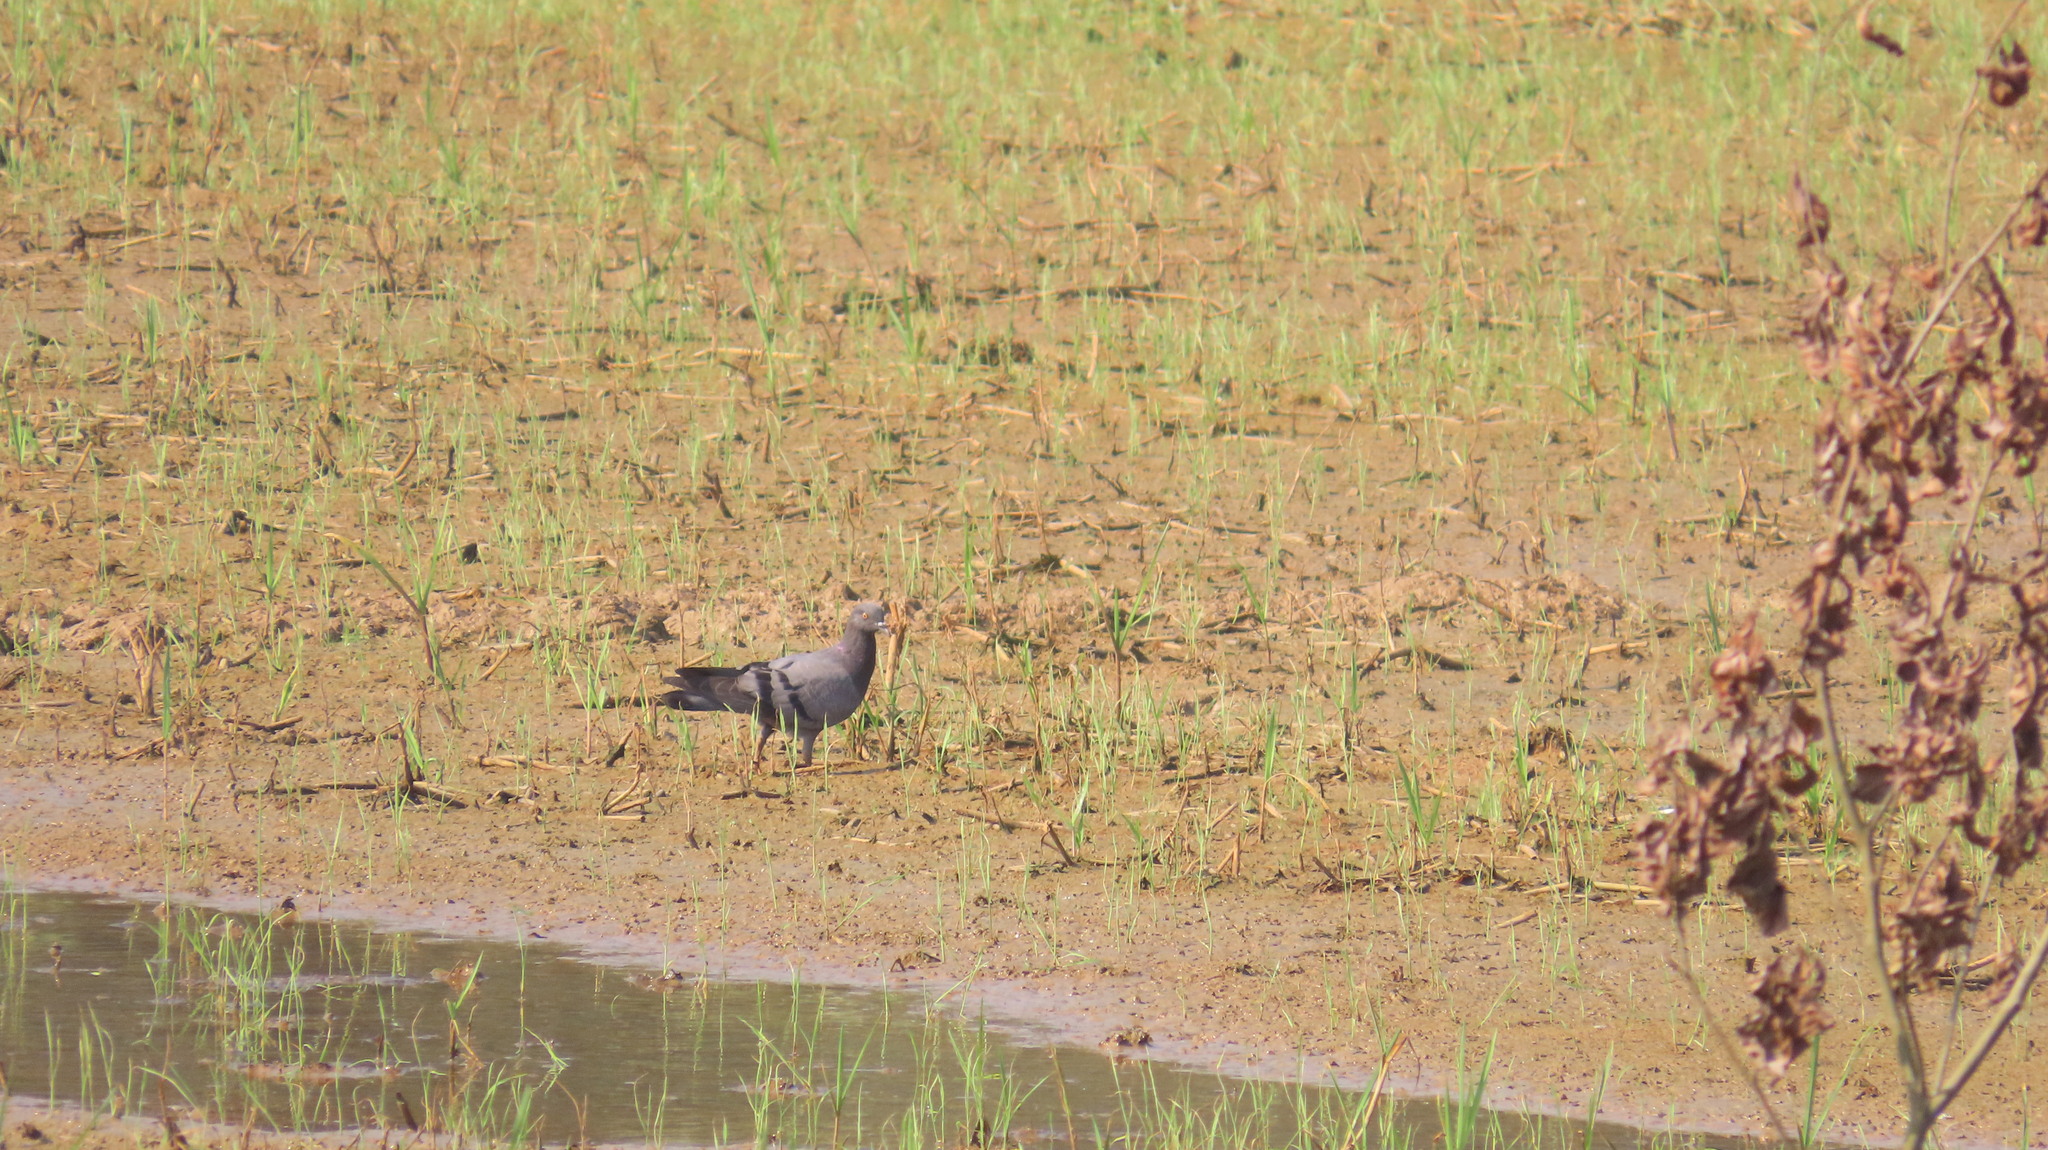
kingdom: Animalia
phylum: Chordata
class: Aves
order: Columbiformes
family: Columbidae
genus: Columba
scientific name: Columba livia
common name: Rock pigeon
